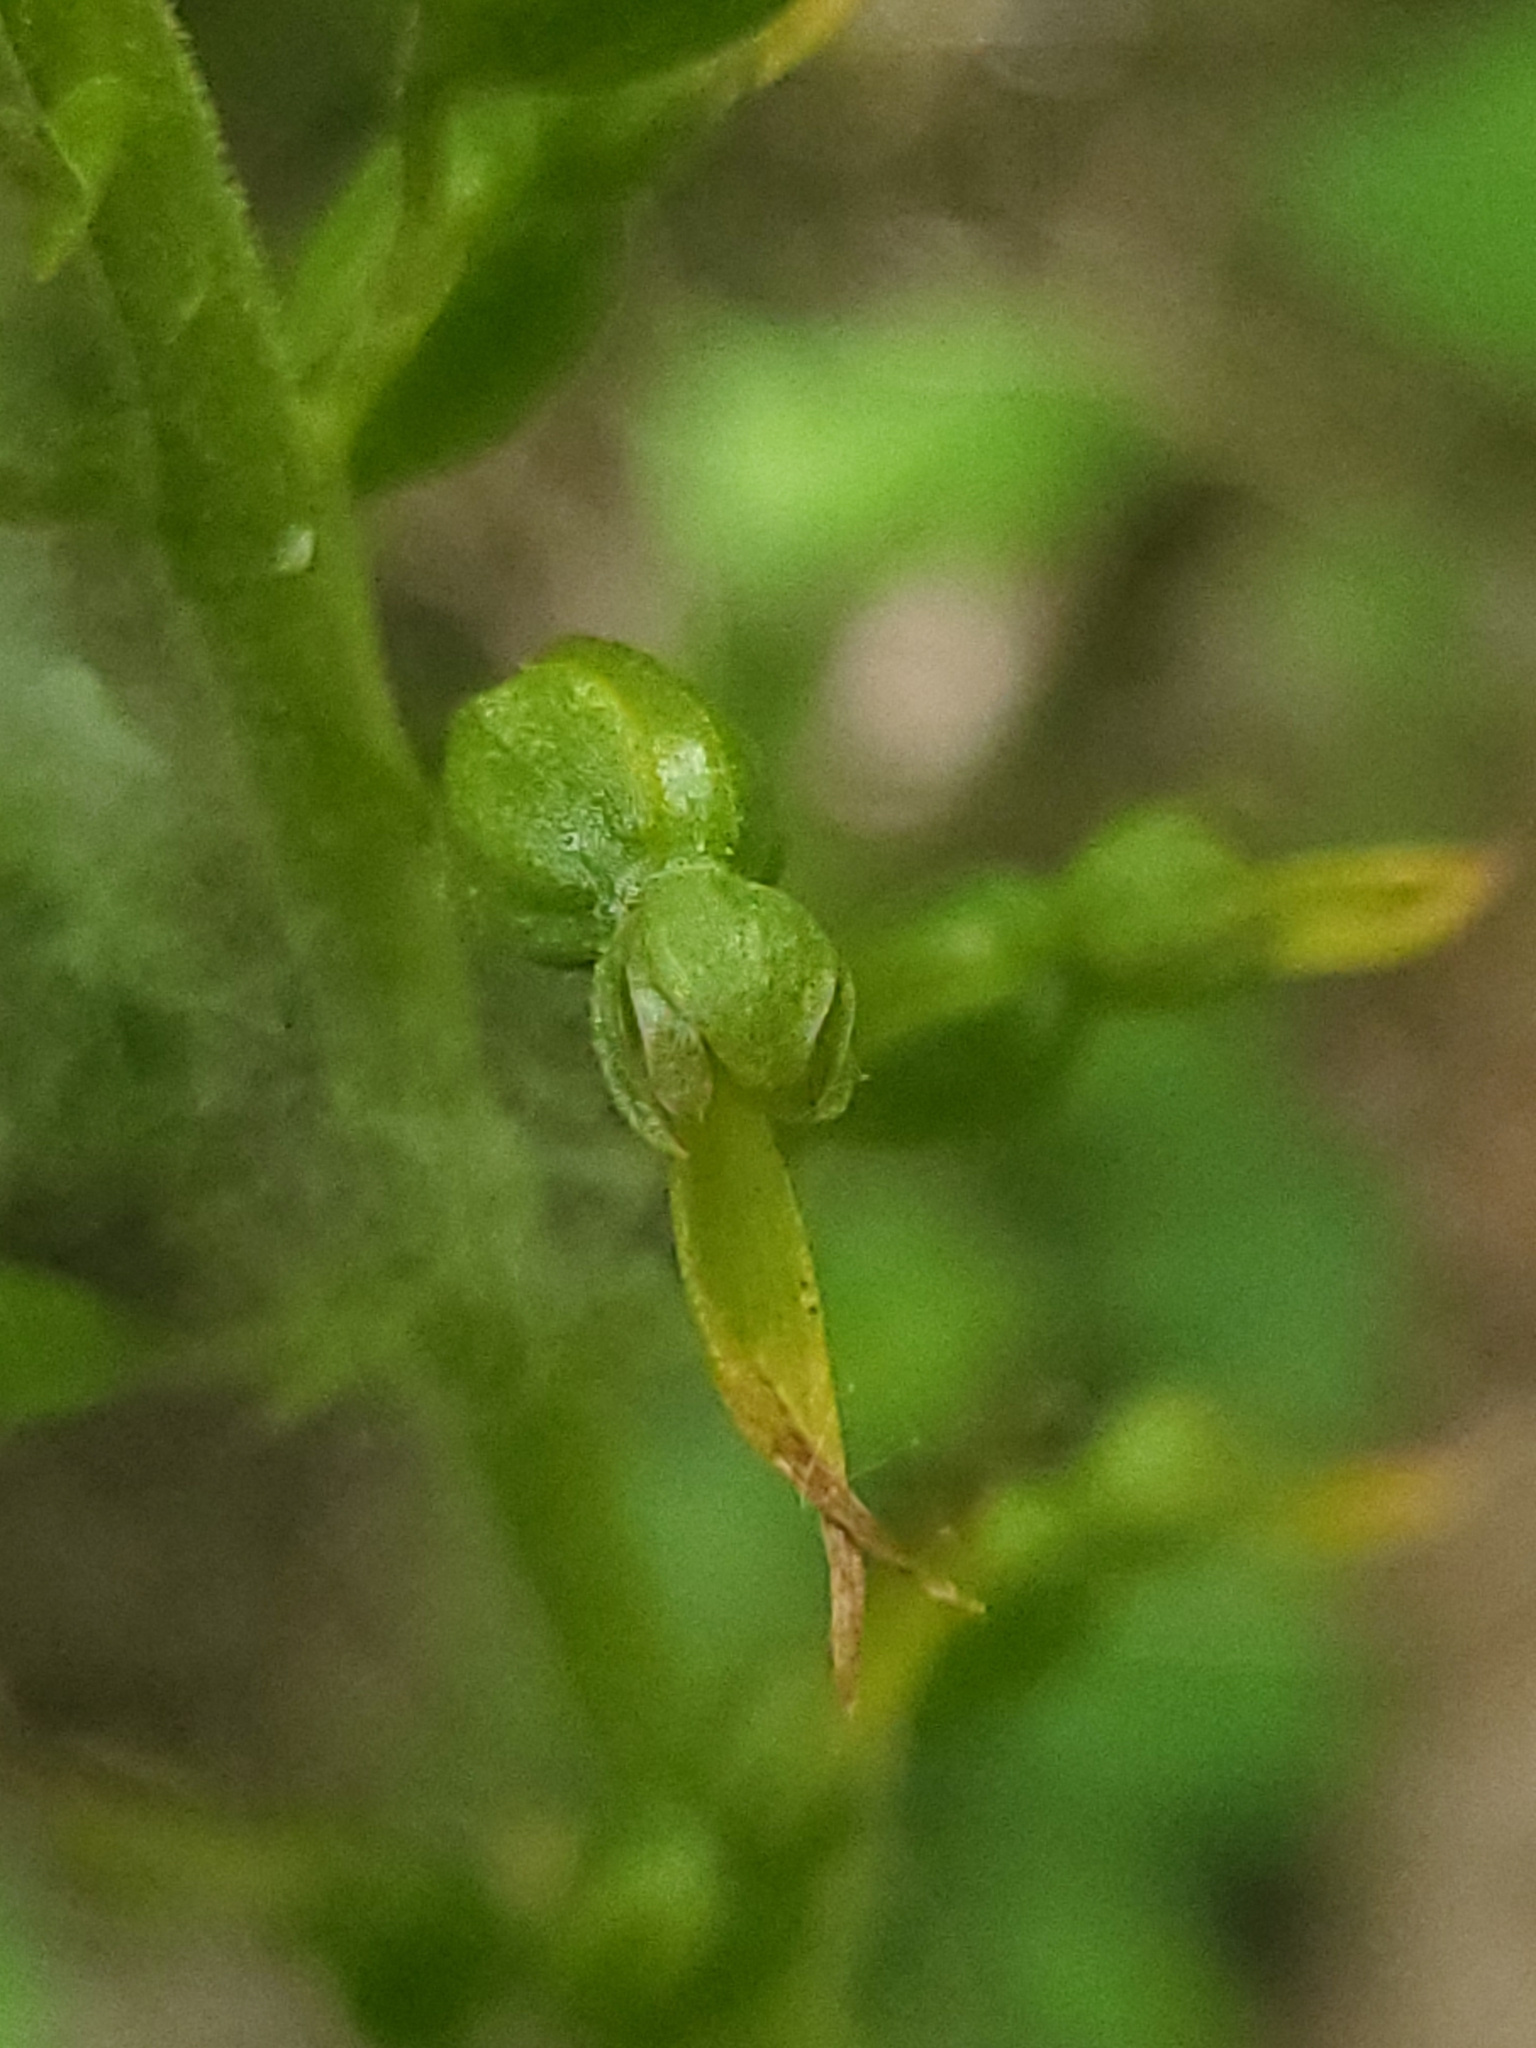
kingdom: Plantae
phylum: Tracheophyta
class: Liliopsida
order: Asparagales
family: Orchidaceae
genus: Neottia
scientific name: Neottia ovata
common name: Common twayblade
